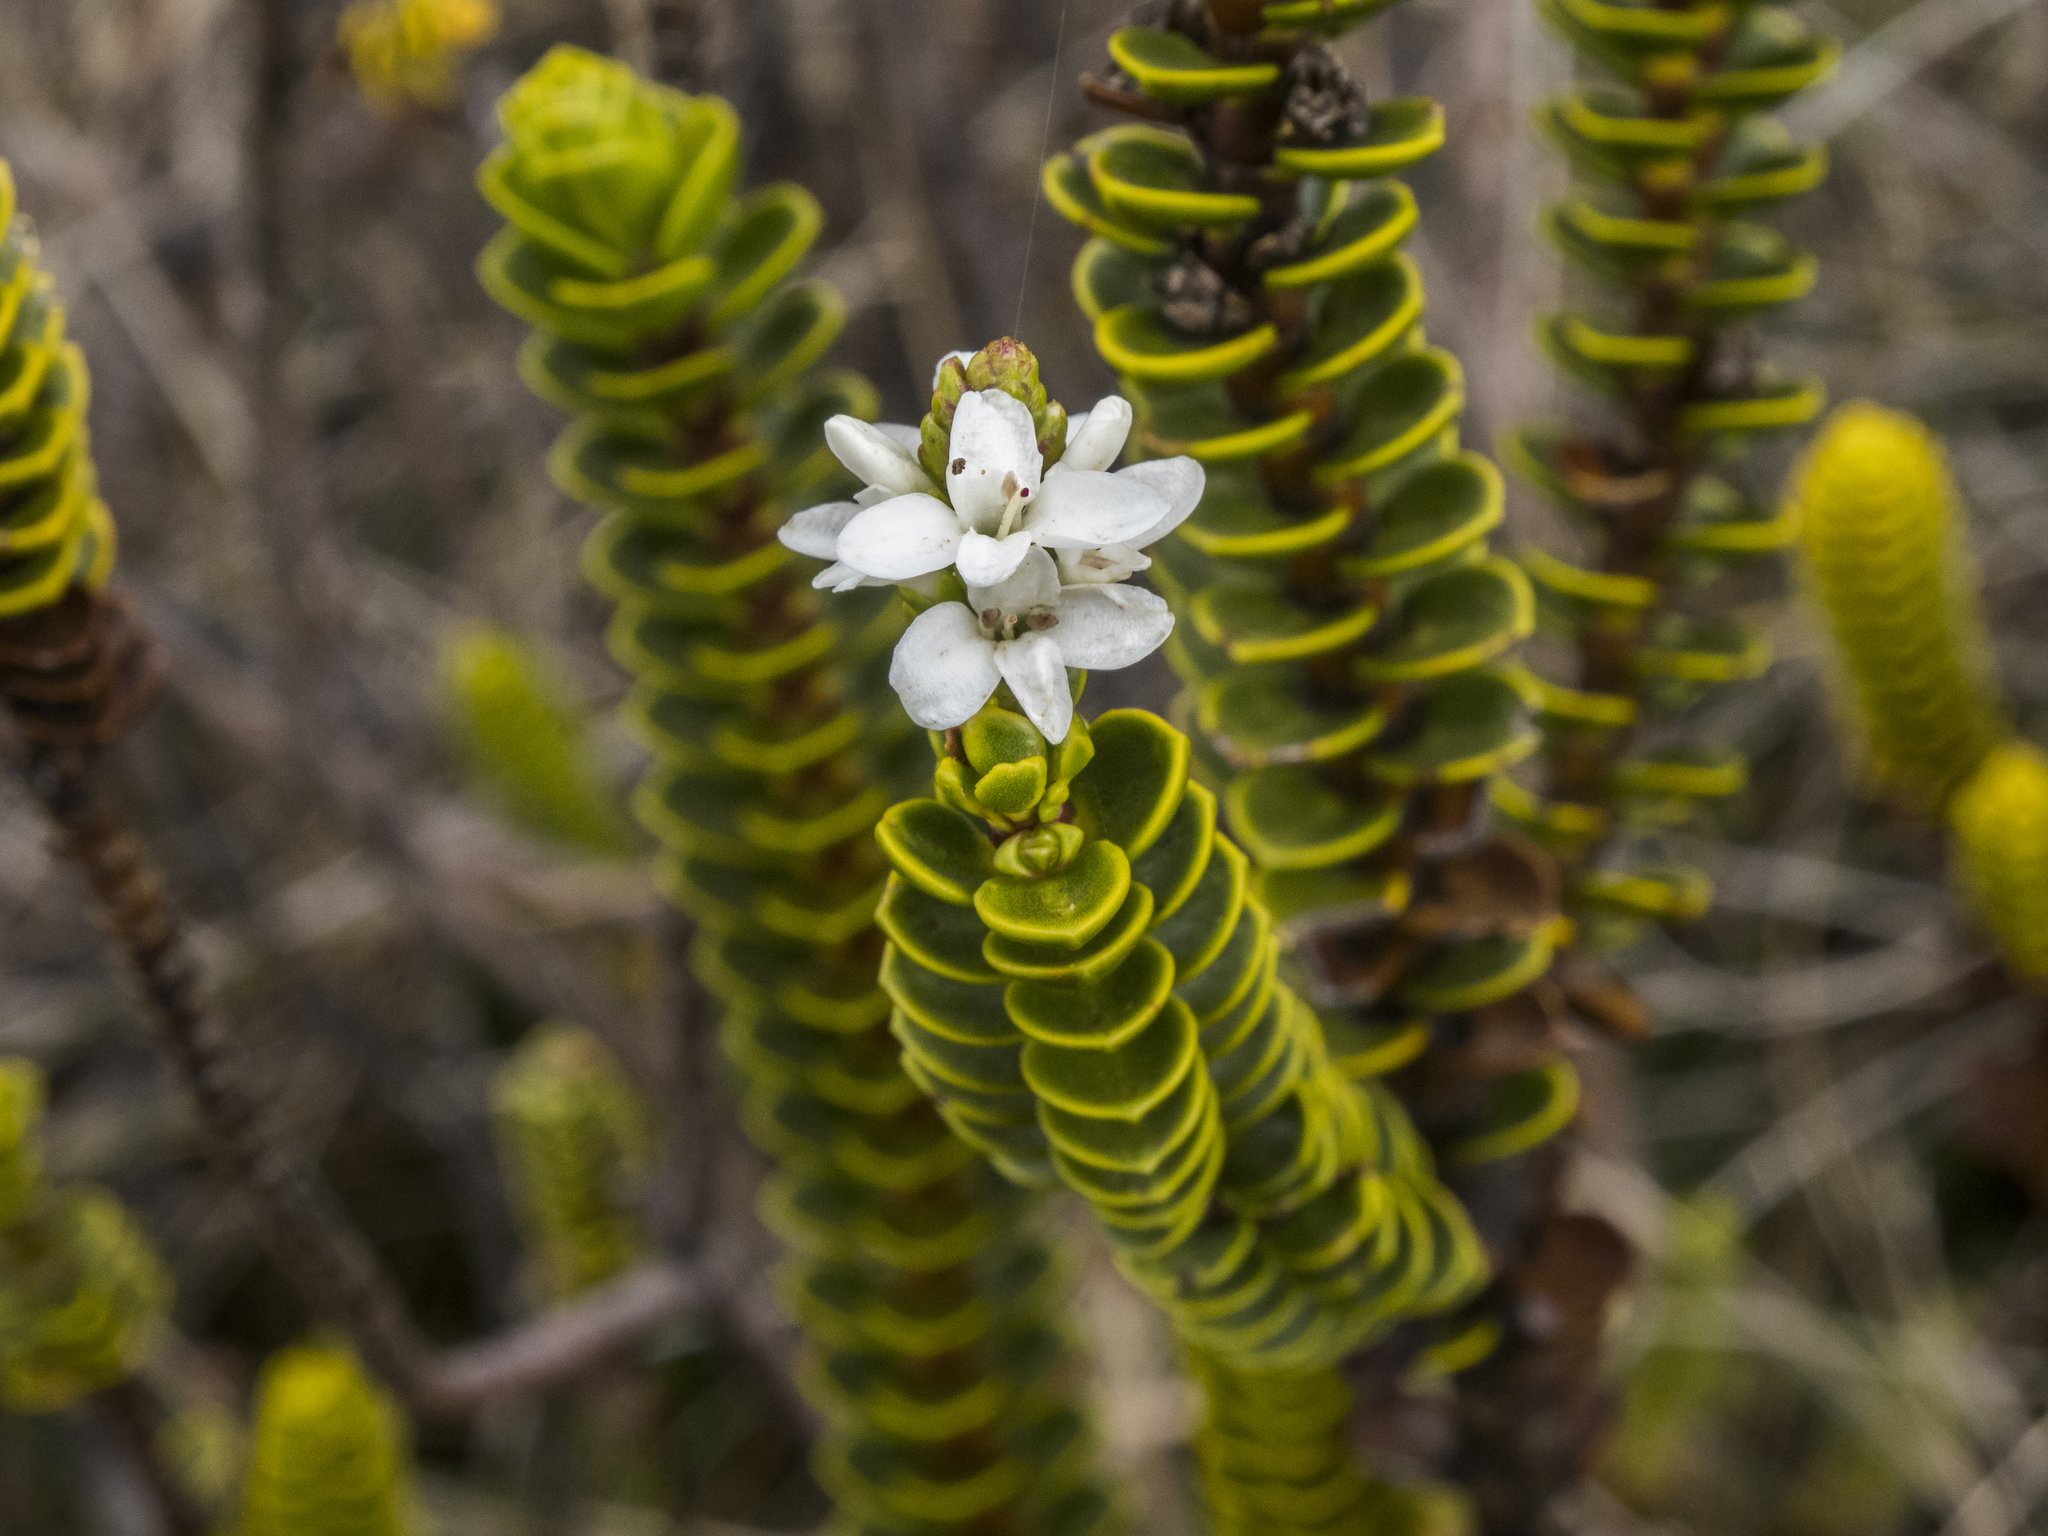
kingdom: Plantae
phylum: Tracheophyta
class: Magnoliopsida
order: Lamiales
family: Plantaginaceae
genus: Veronica
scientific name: Veronica pauciramosa
